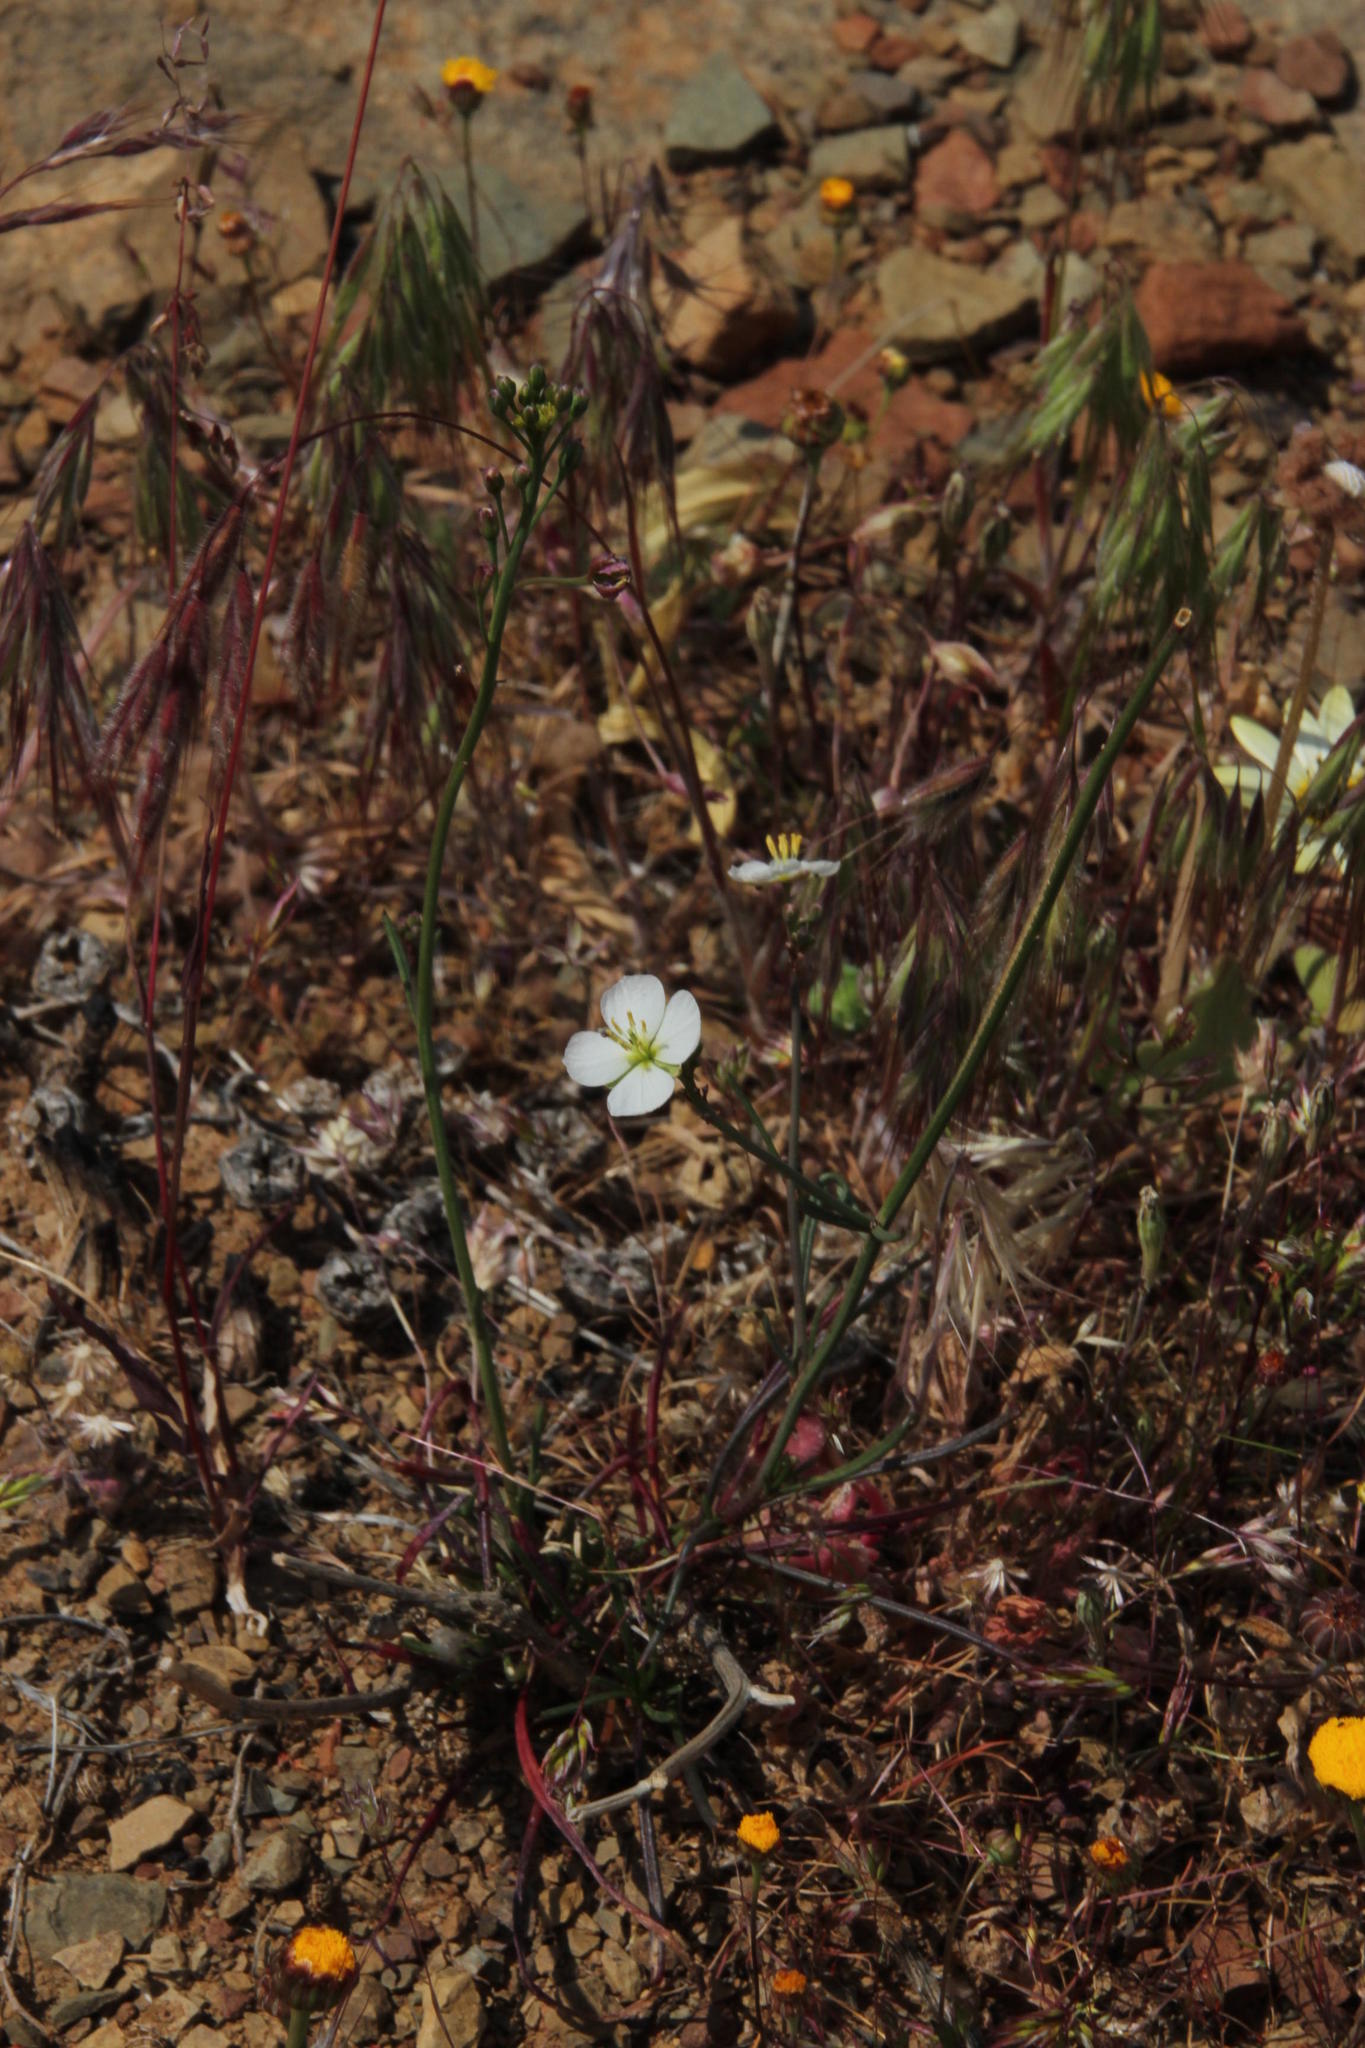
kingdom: Plantae
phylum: Tracheophyta
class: Magnoliopsida
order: Brassicales
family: Brassicaceae
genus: Heliophila
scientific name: Heliophila carnosa
